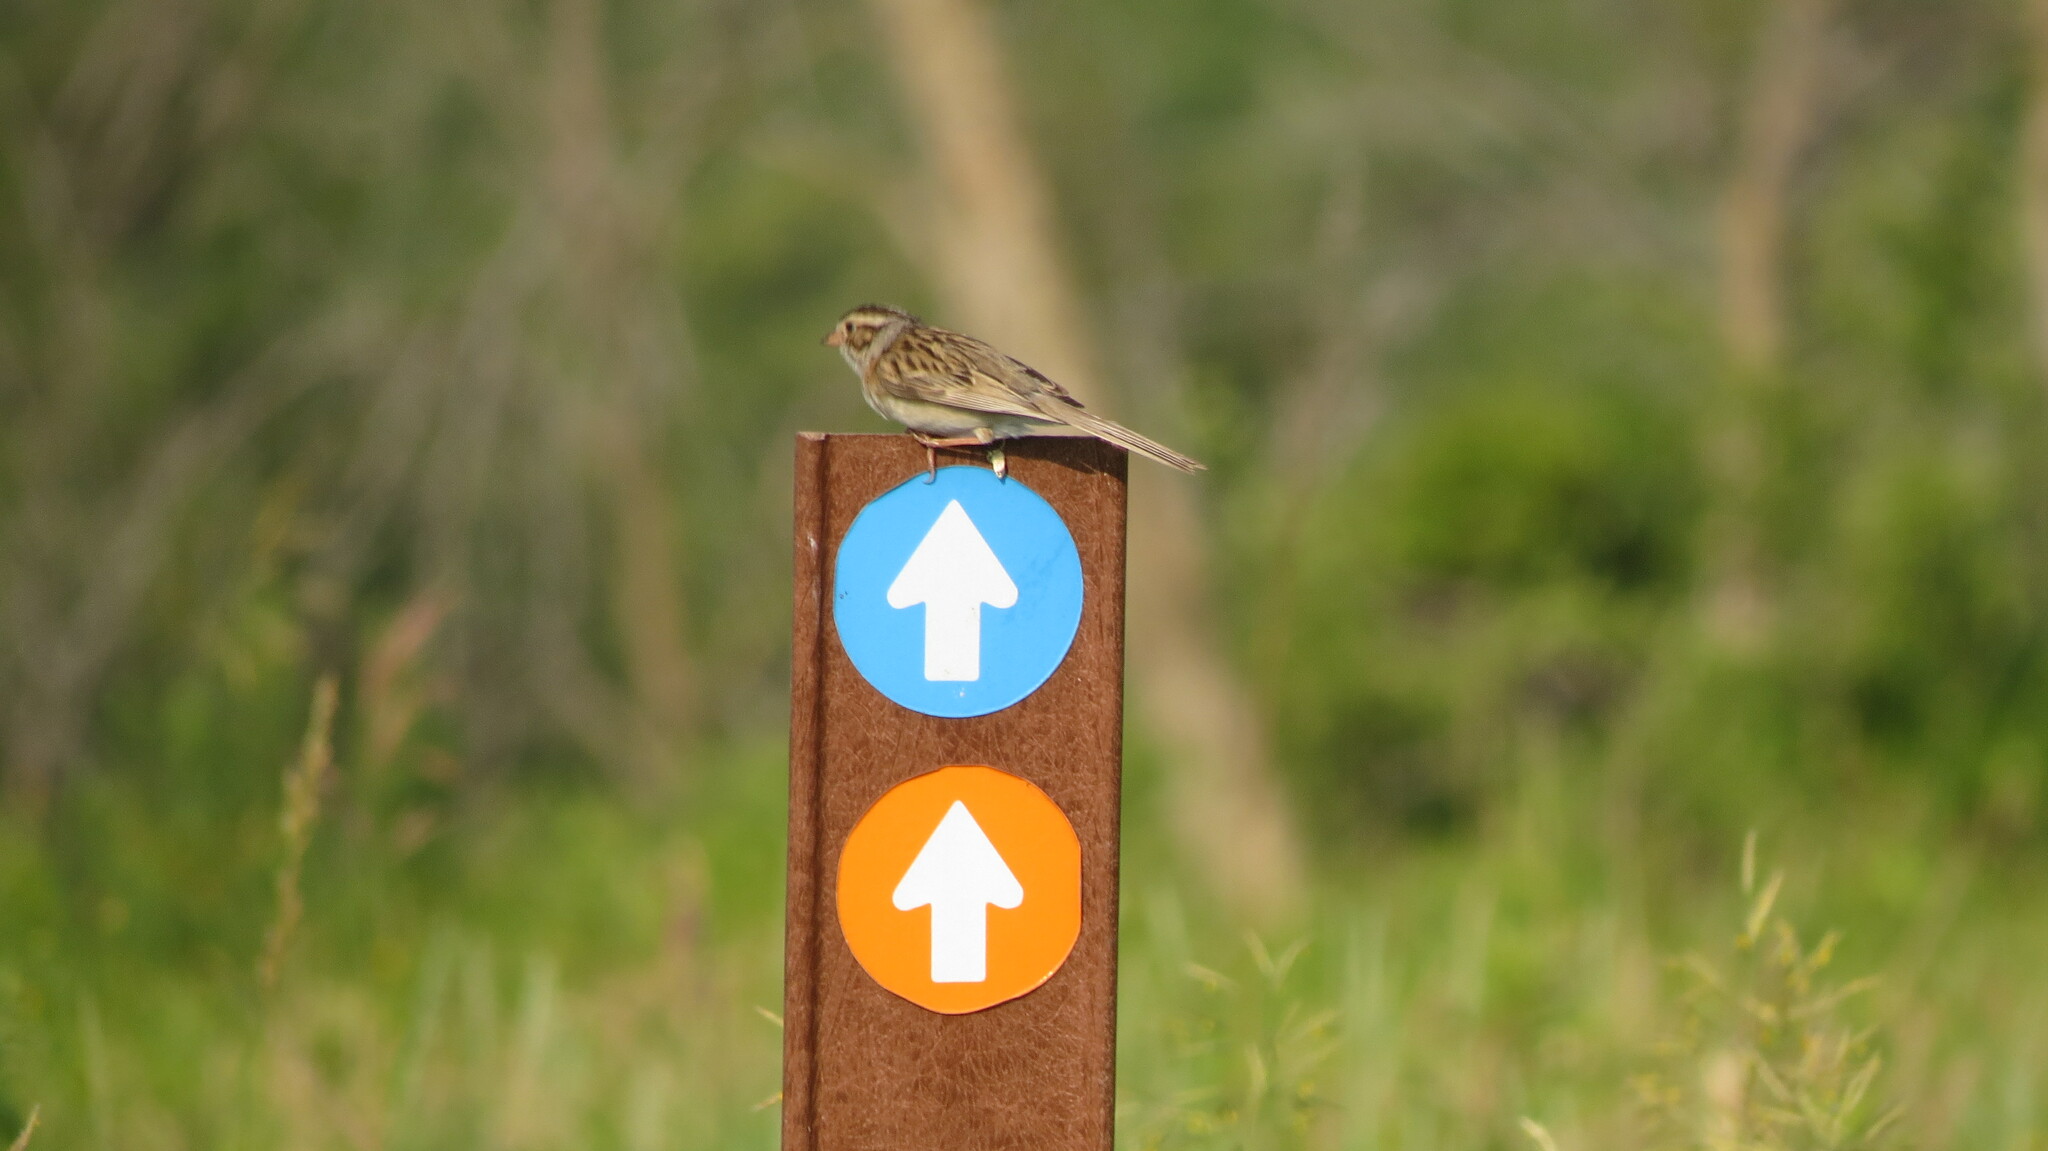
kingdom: Animalia
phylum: Chordata
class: Aves
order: Passeriformes
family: Passerellidae
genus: Spizella
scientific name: Spizella pallida
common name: Clay-colored sparrow
